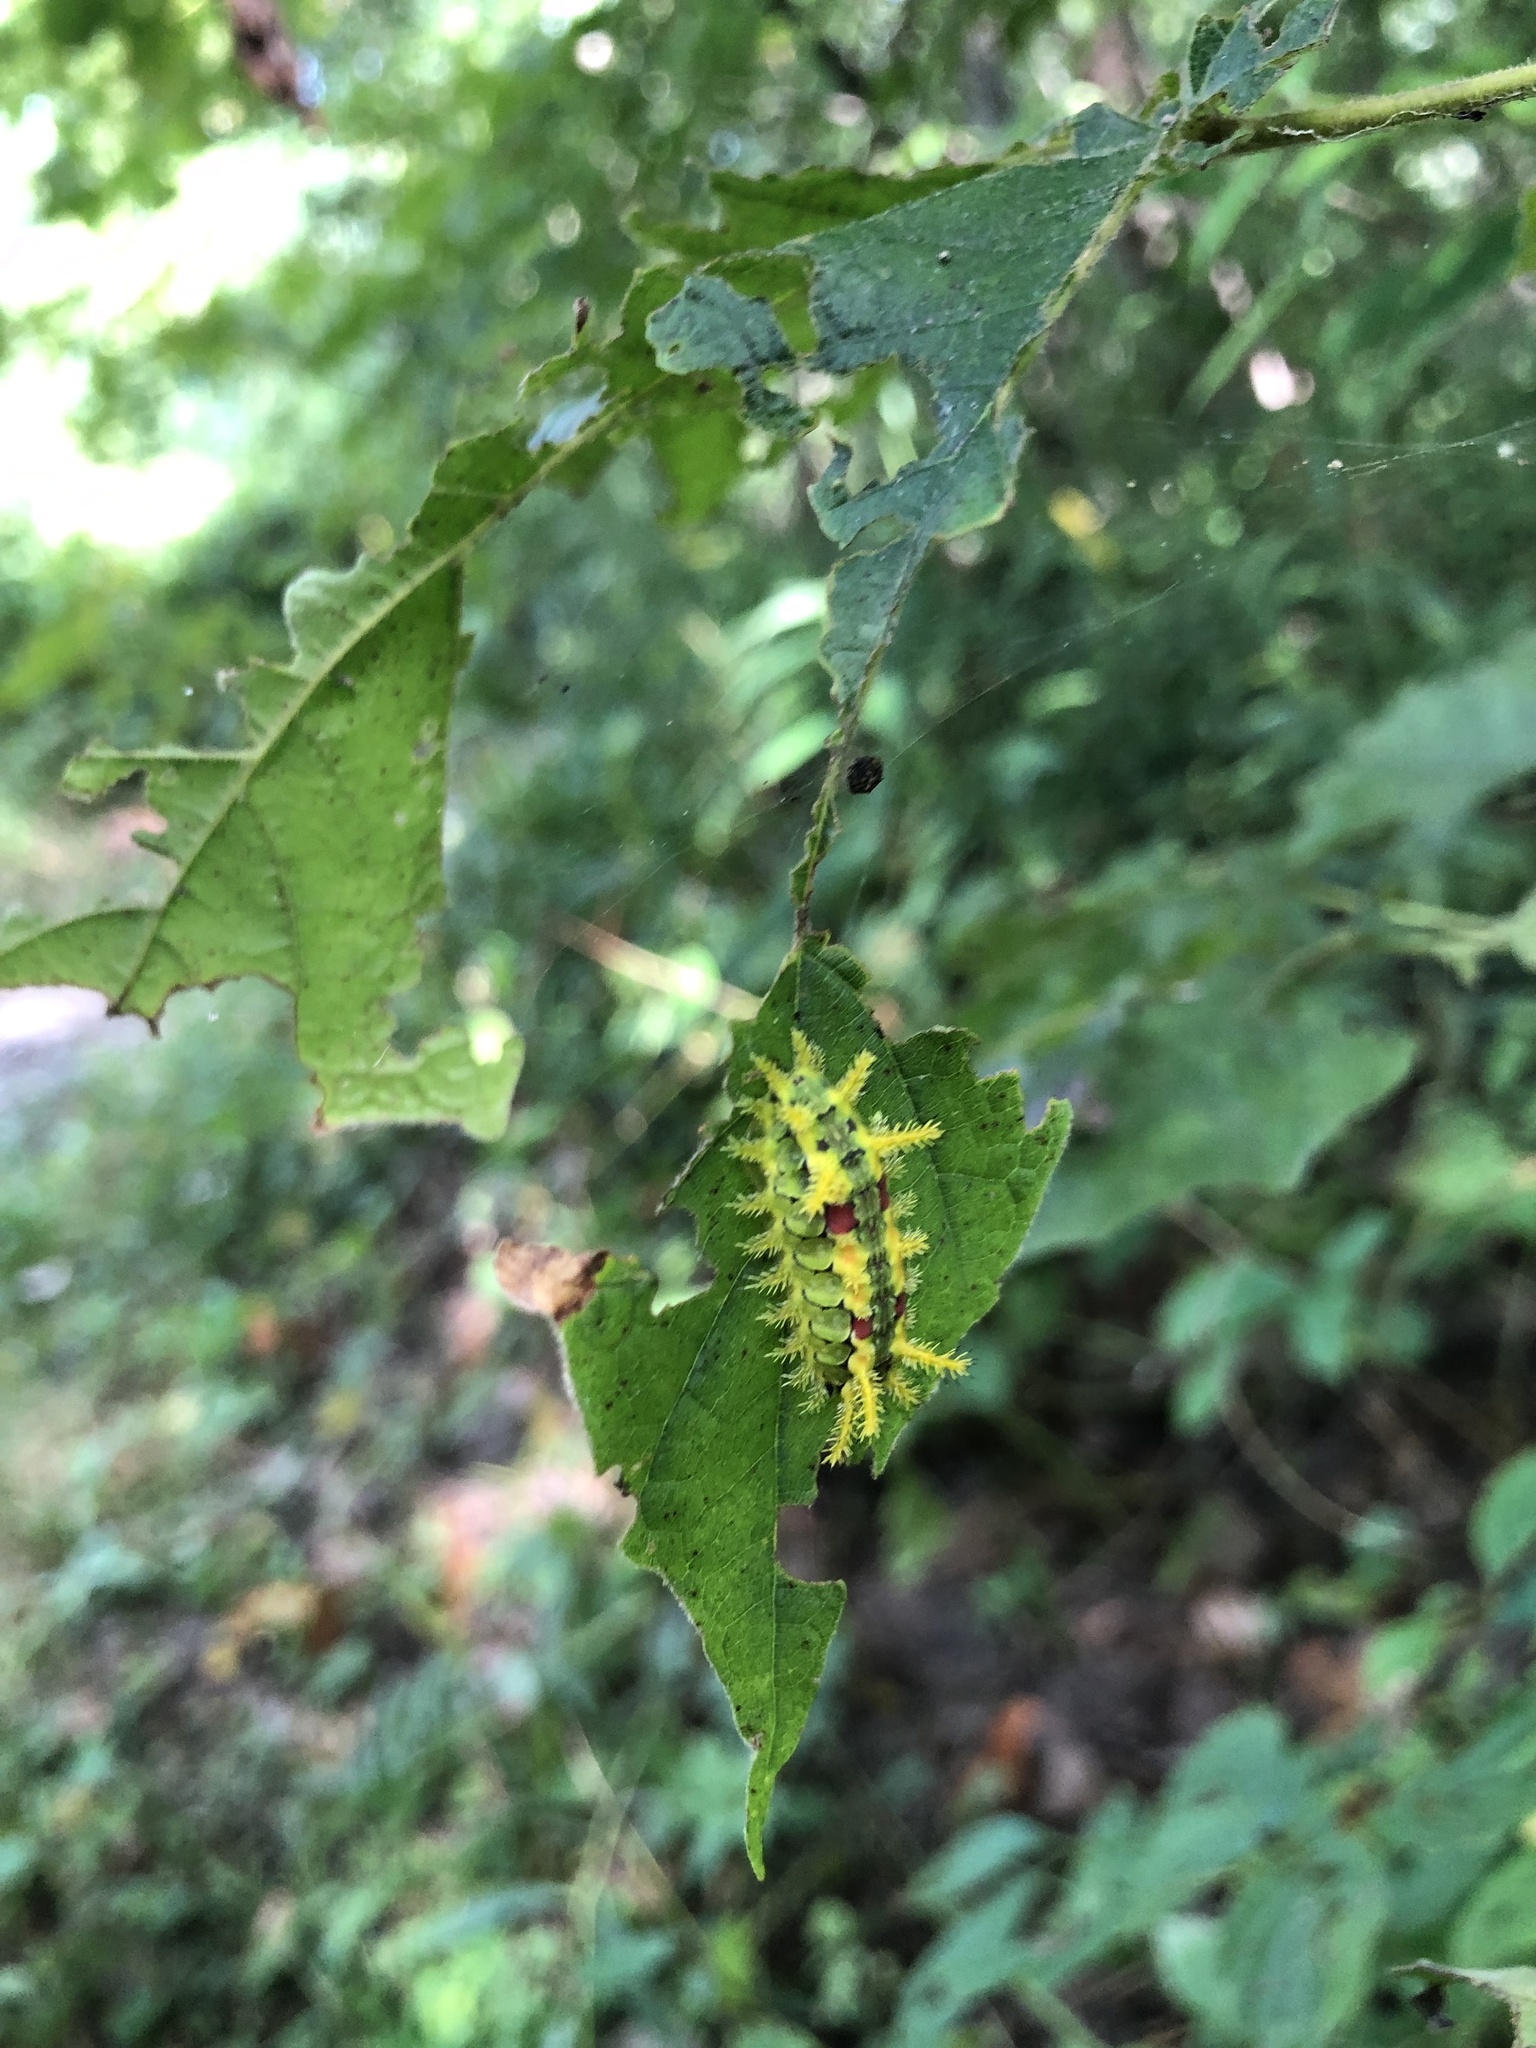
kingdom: Animalia
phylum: Arthropoda
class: Insecta
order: Lepidoptera
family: Limacodidae
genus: Euclea
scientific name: Euclea delphinii
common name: Spiny oak-slug moth
